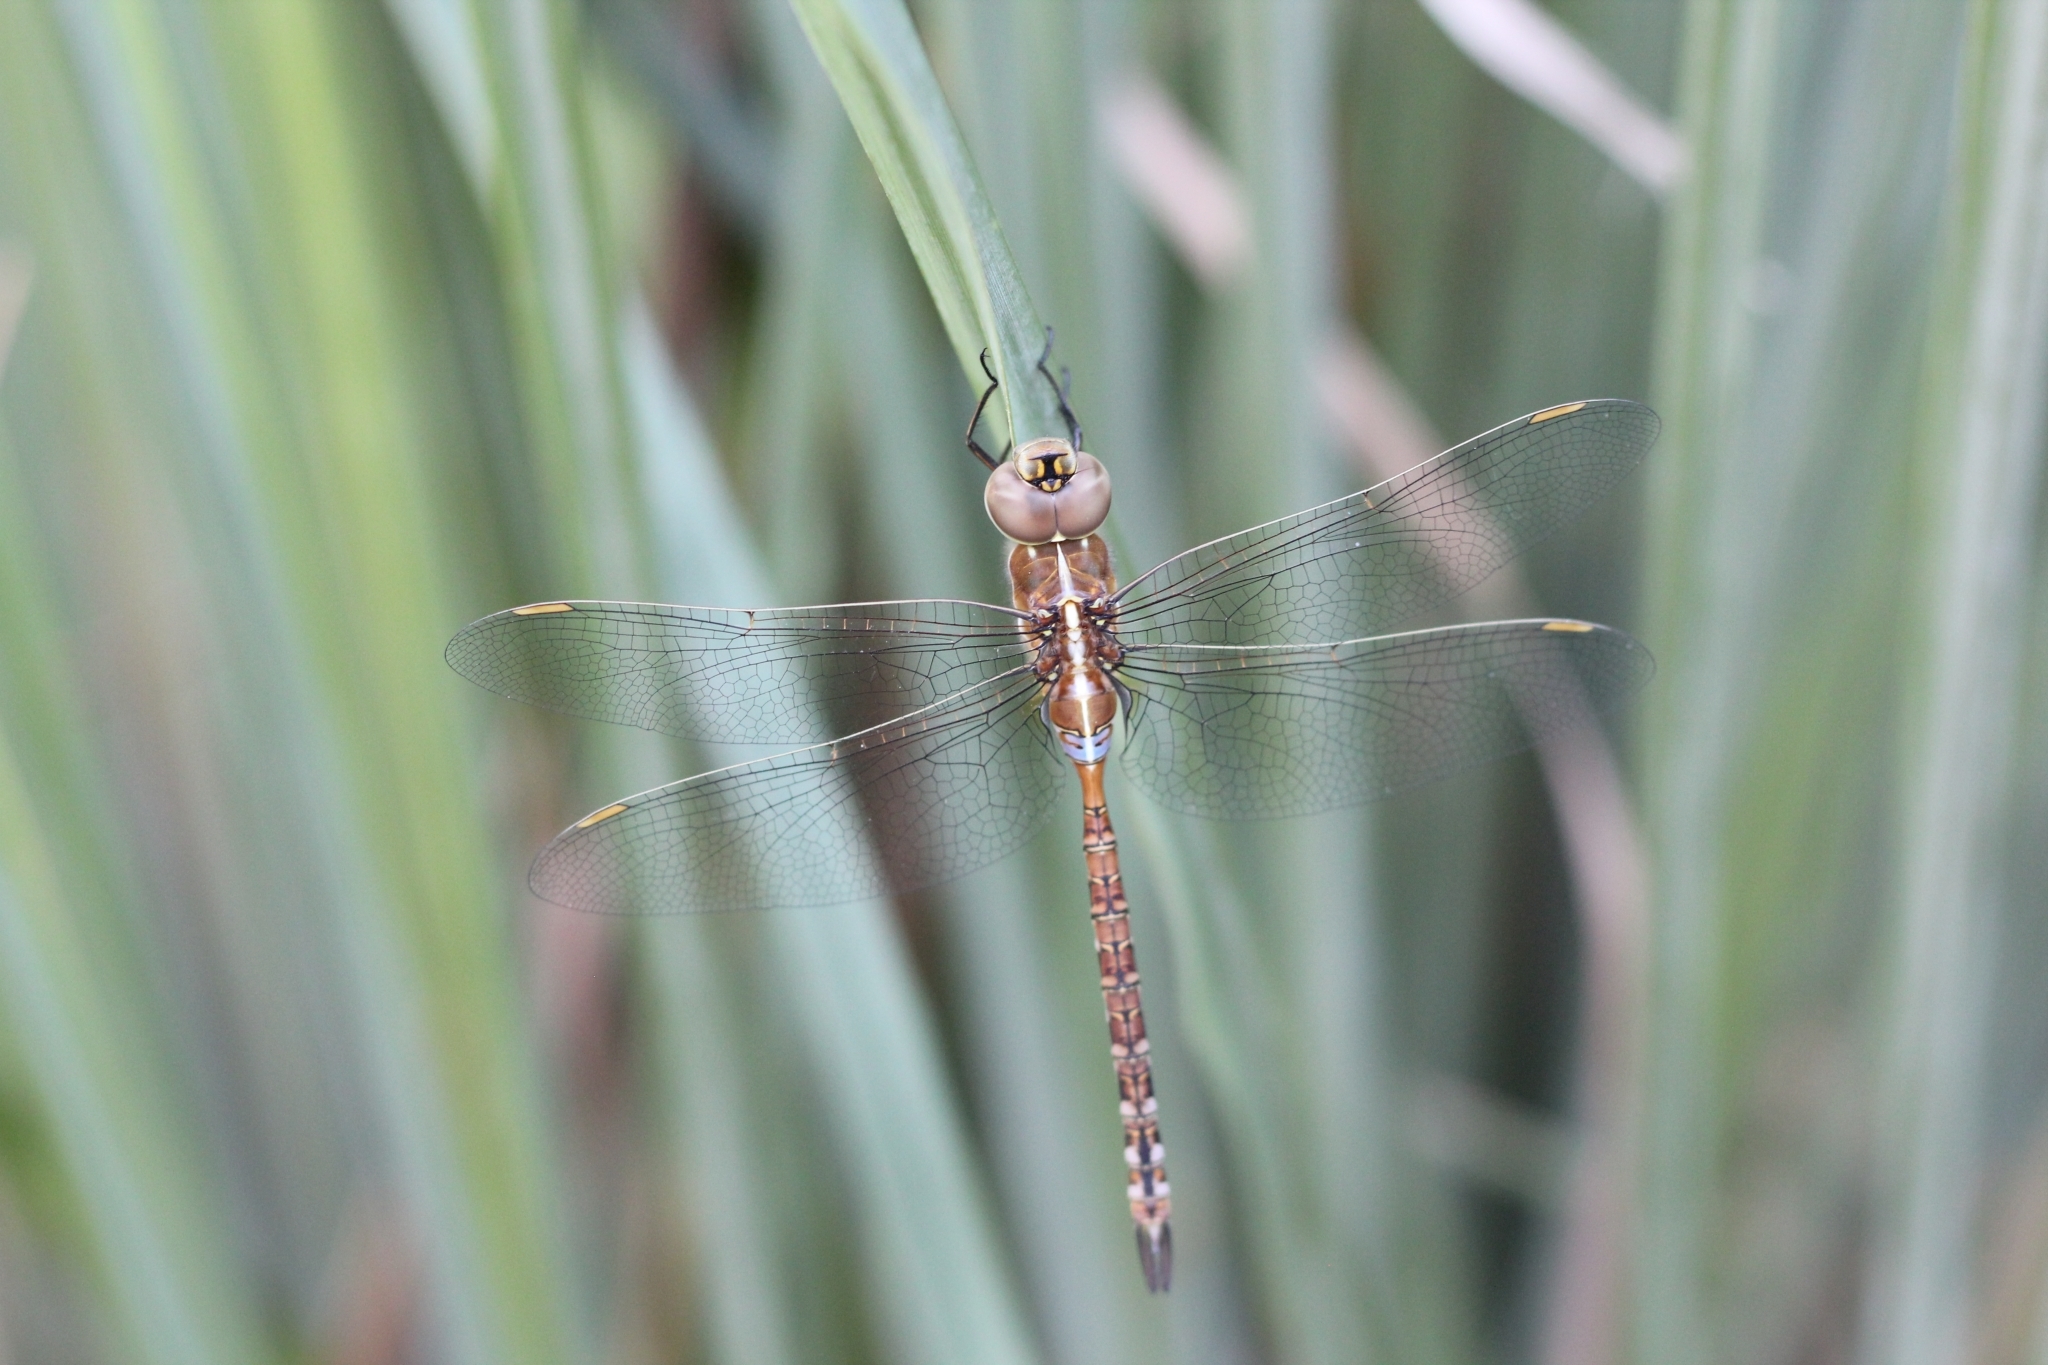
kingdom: Animalia
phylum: Arthropoda
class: Insecta
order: Odonata
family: Aeshnidae
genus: Rhionaeschna
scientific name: Rhionaeschna bonariensis
